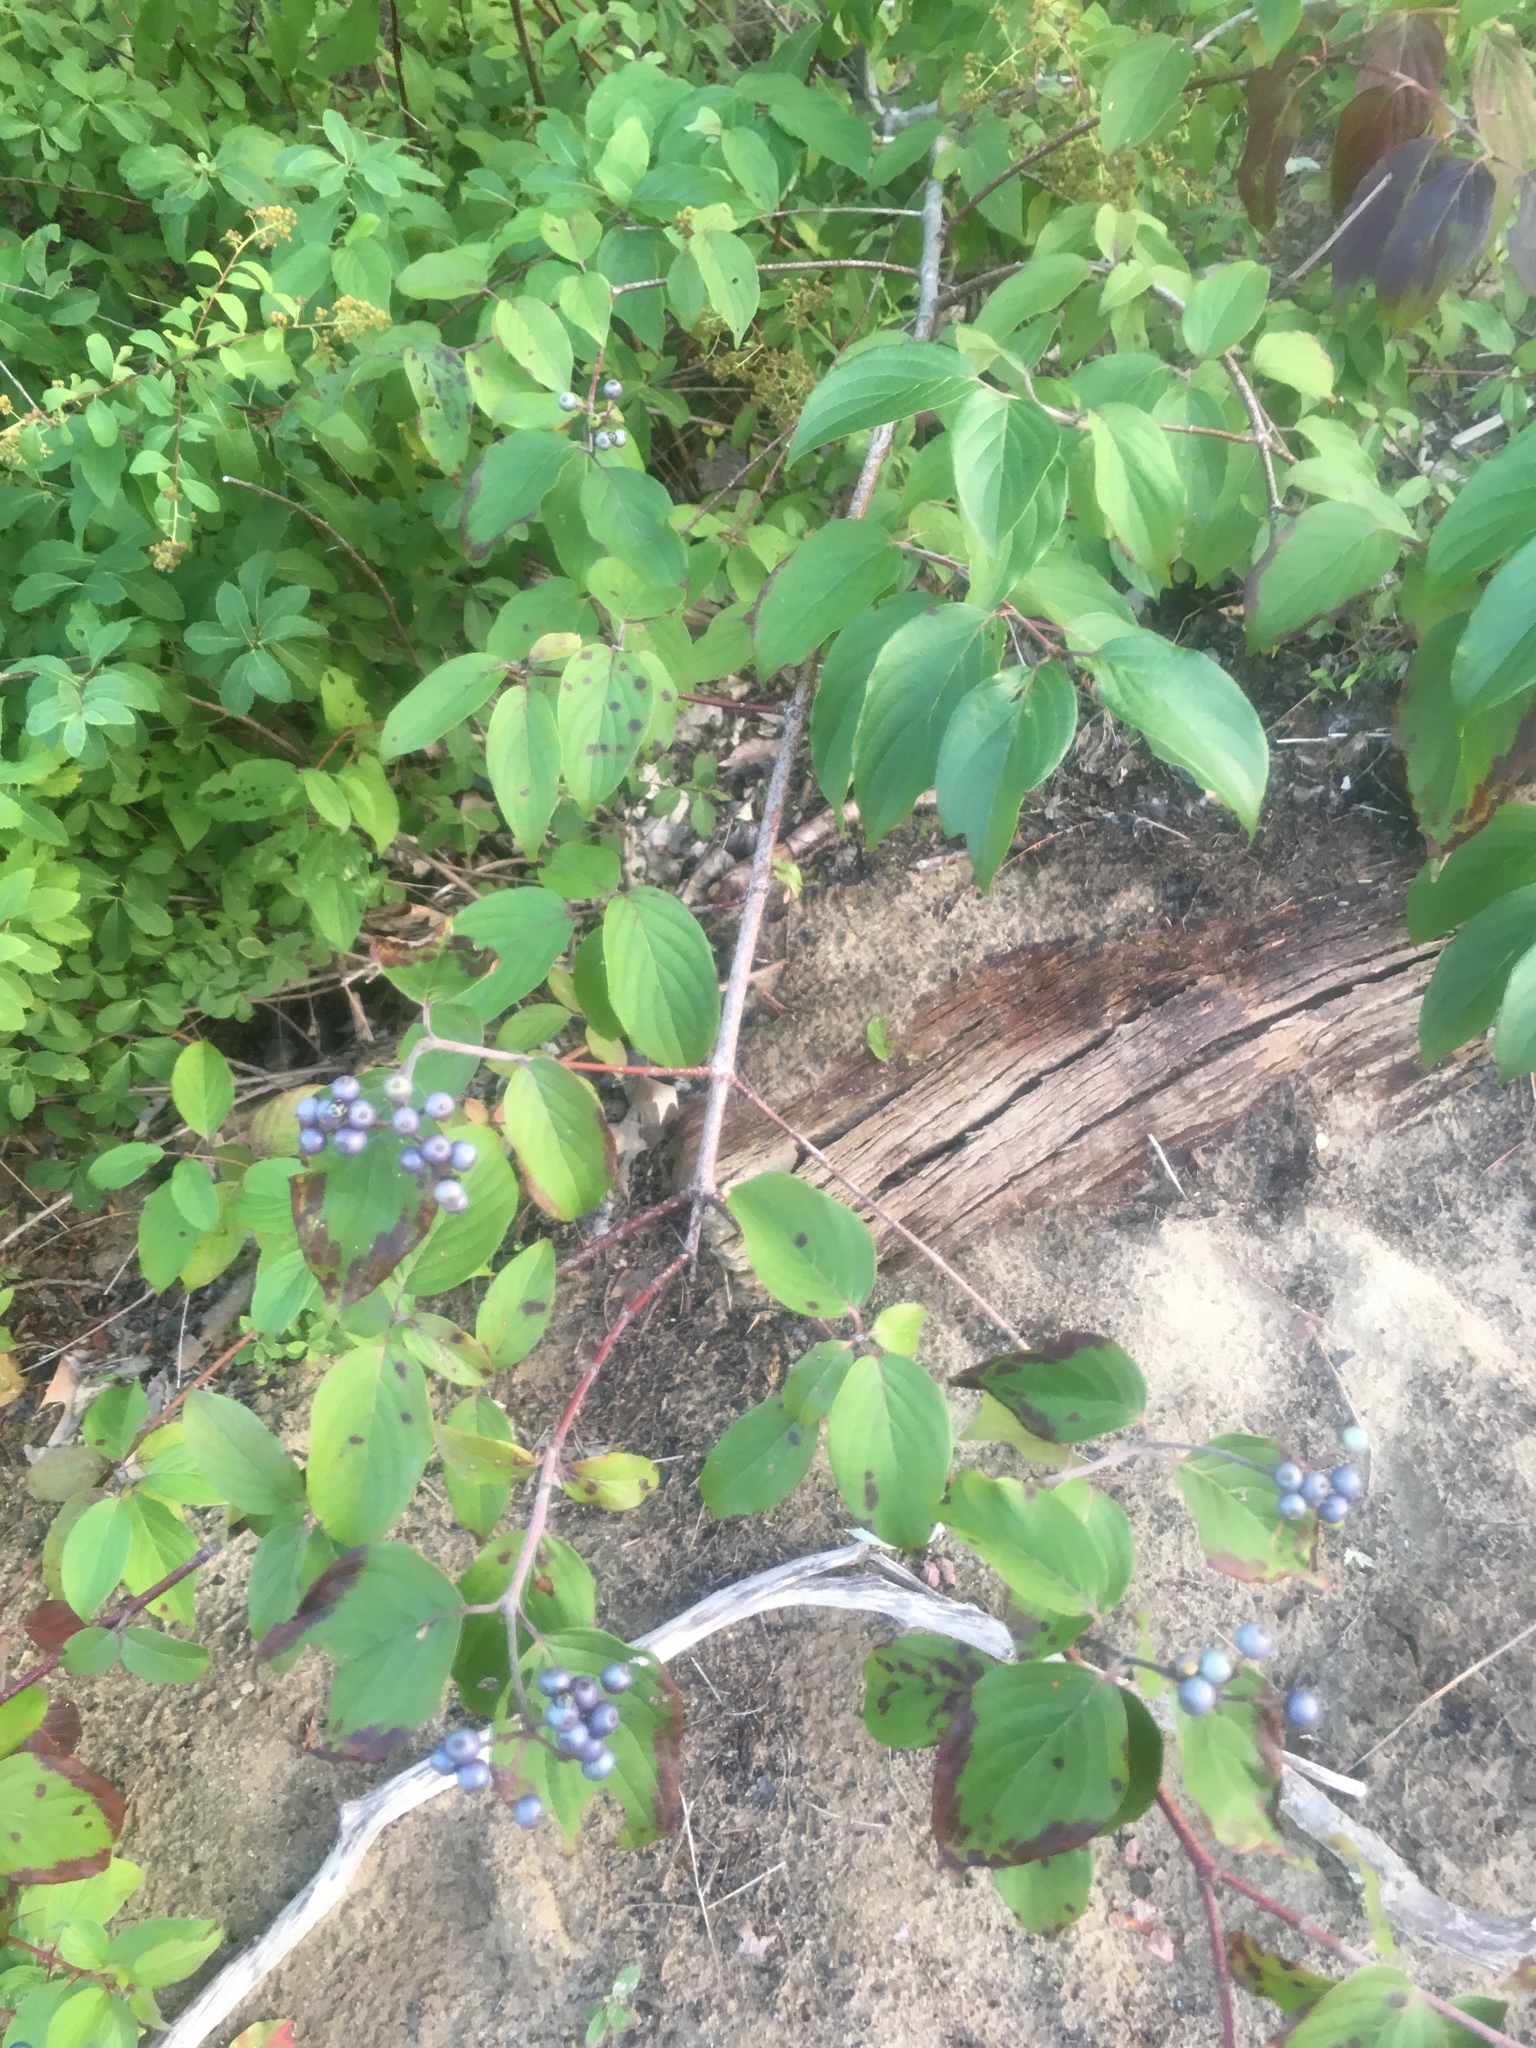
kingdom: Plantae
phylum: Tracheophyta
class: Magnoliopsida
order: Cornales
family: Cornaceae
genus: Cornus
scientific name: Cornus amomum
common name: Silky dogwood
